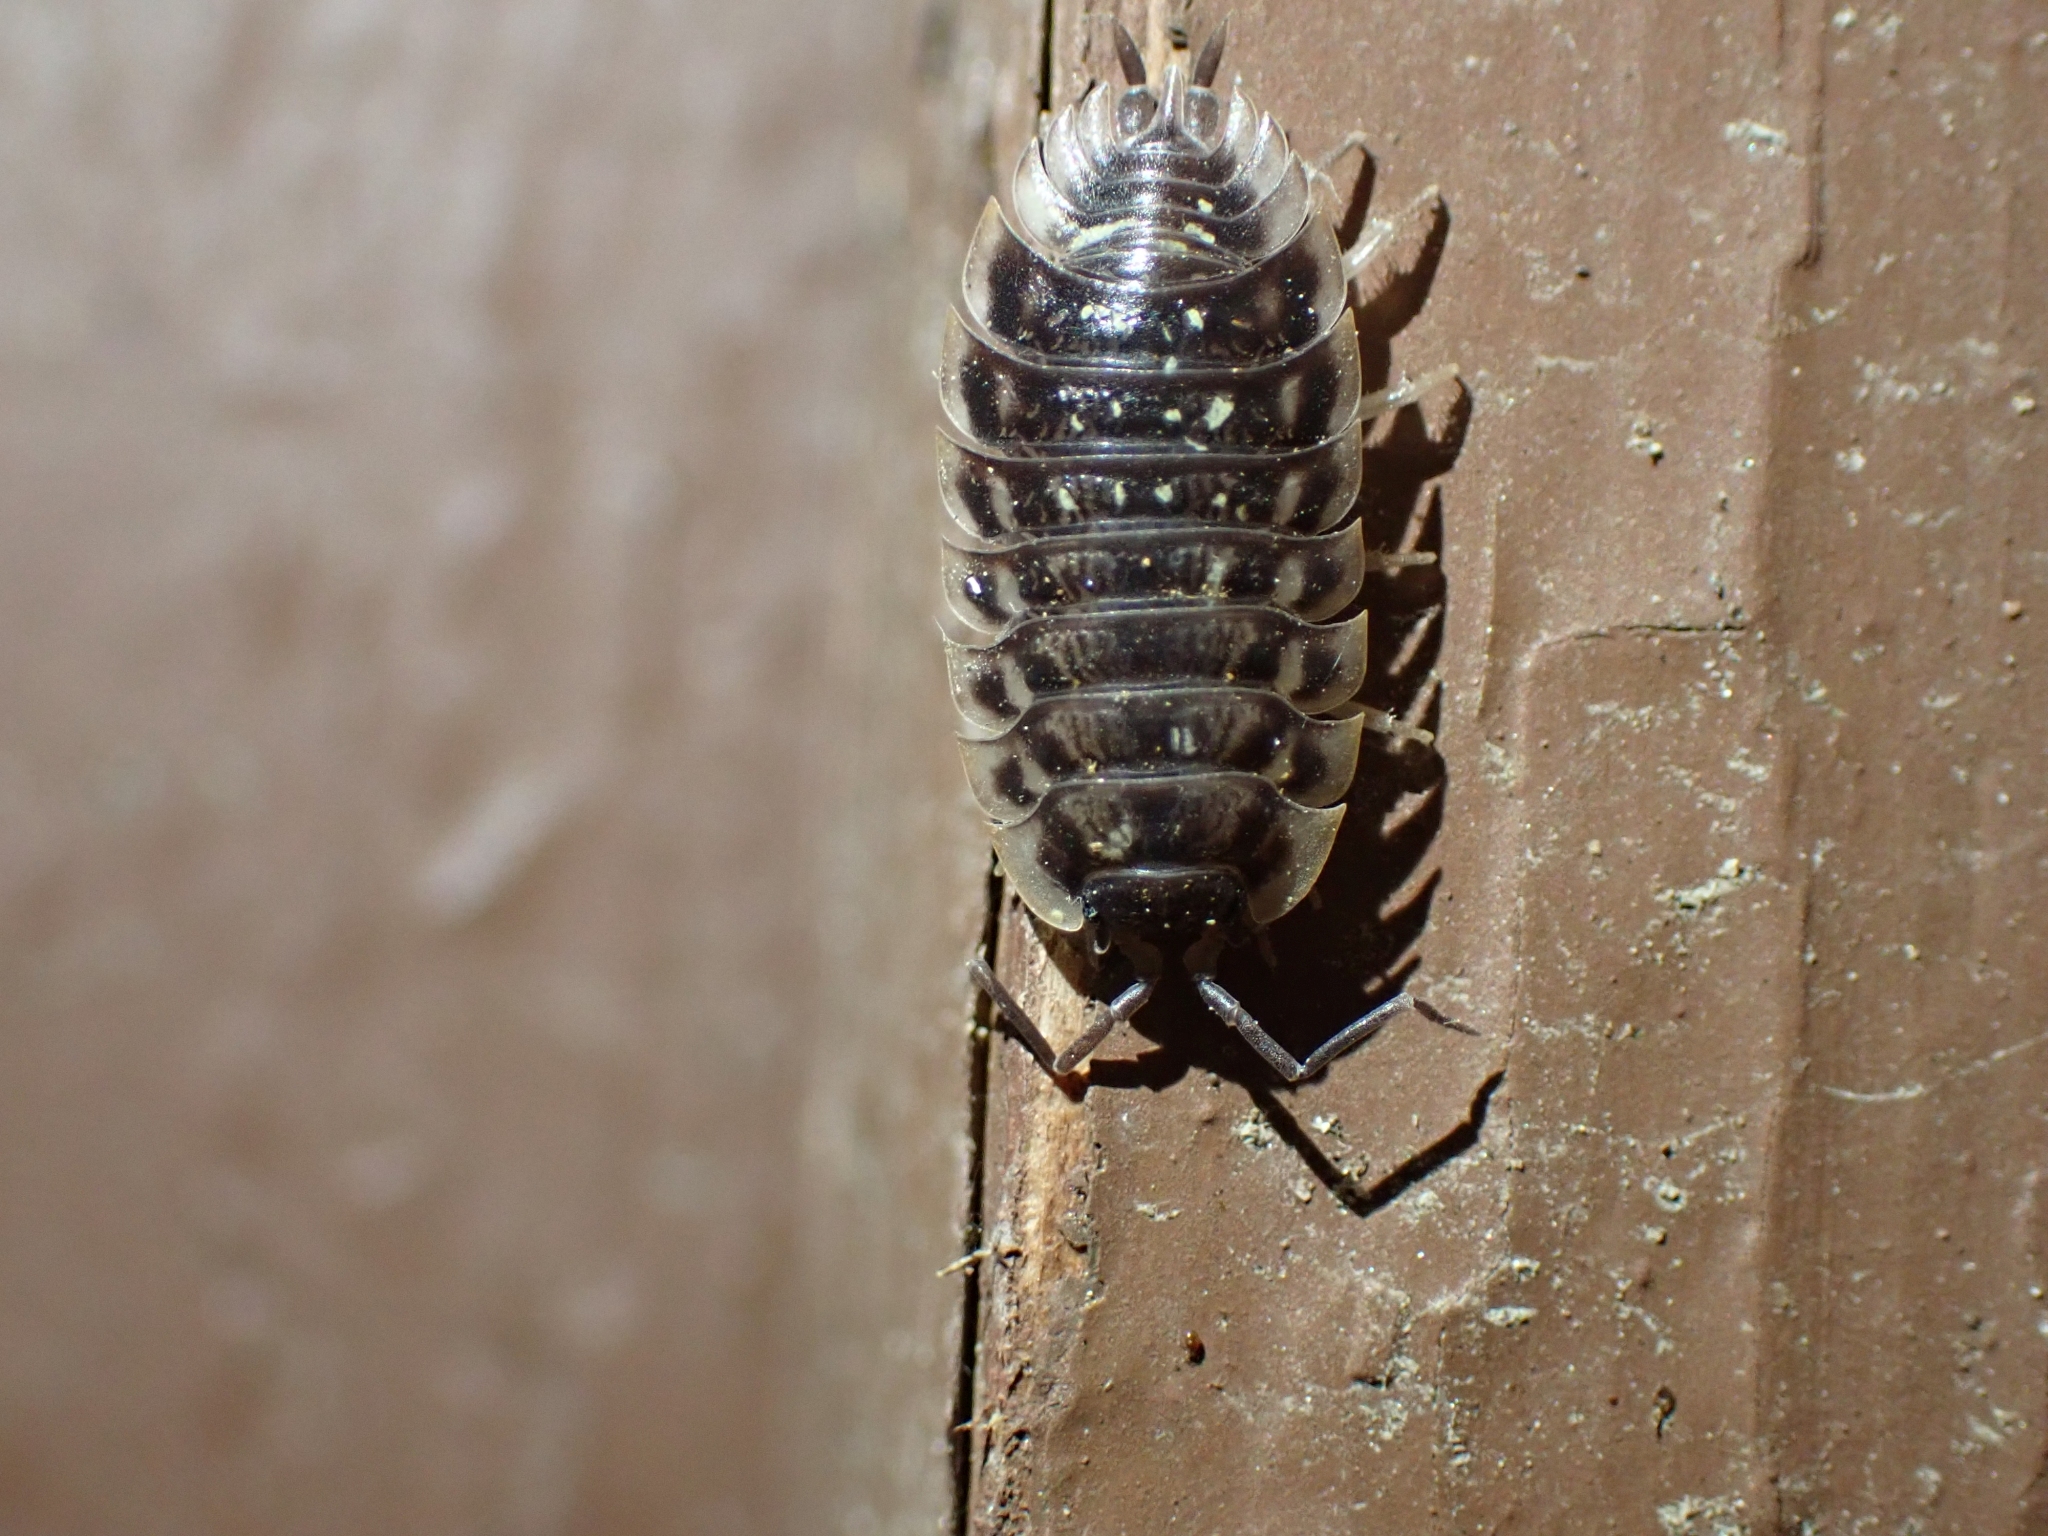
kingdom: Animalia
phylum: Arthropoda
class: Malacostraca
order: Isopoda
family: Oniscidae
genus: Oniscus
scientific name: Oniscus asellus
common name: Common shiny woodlouse
